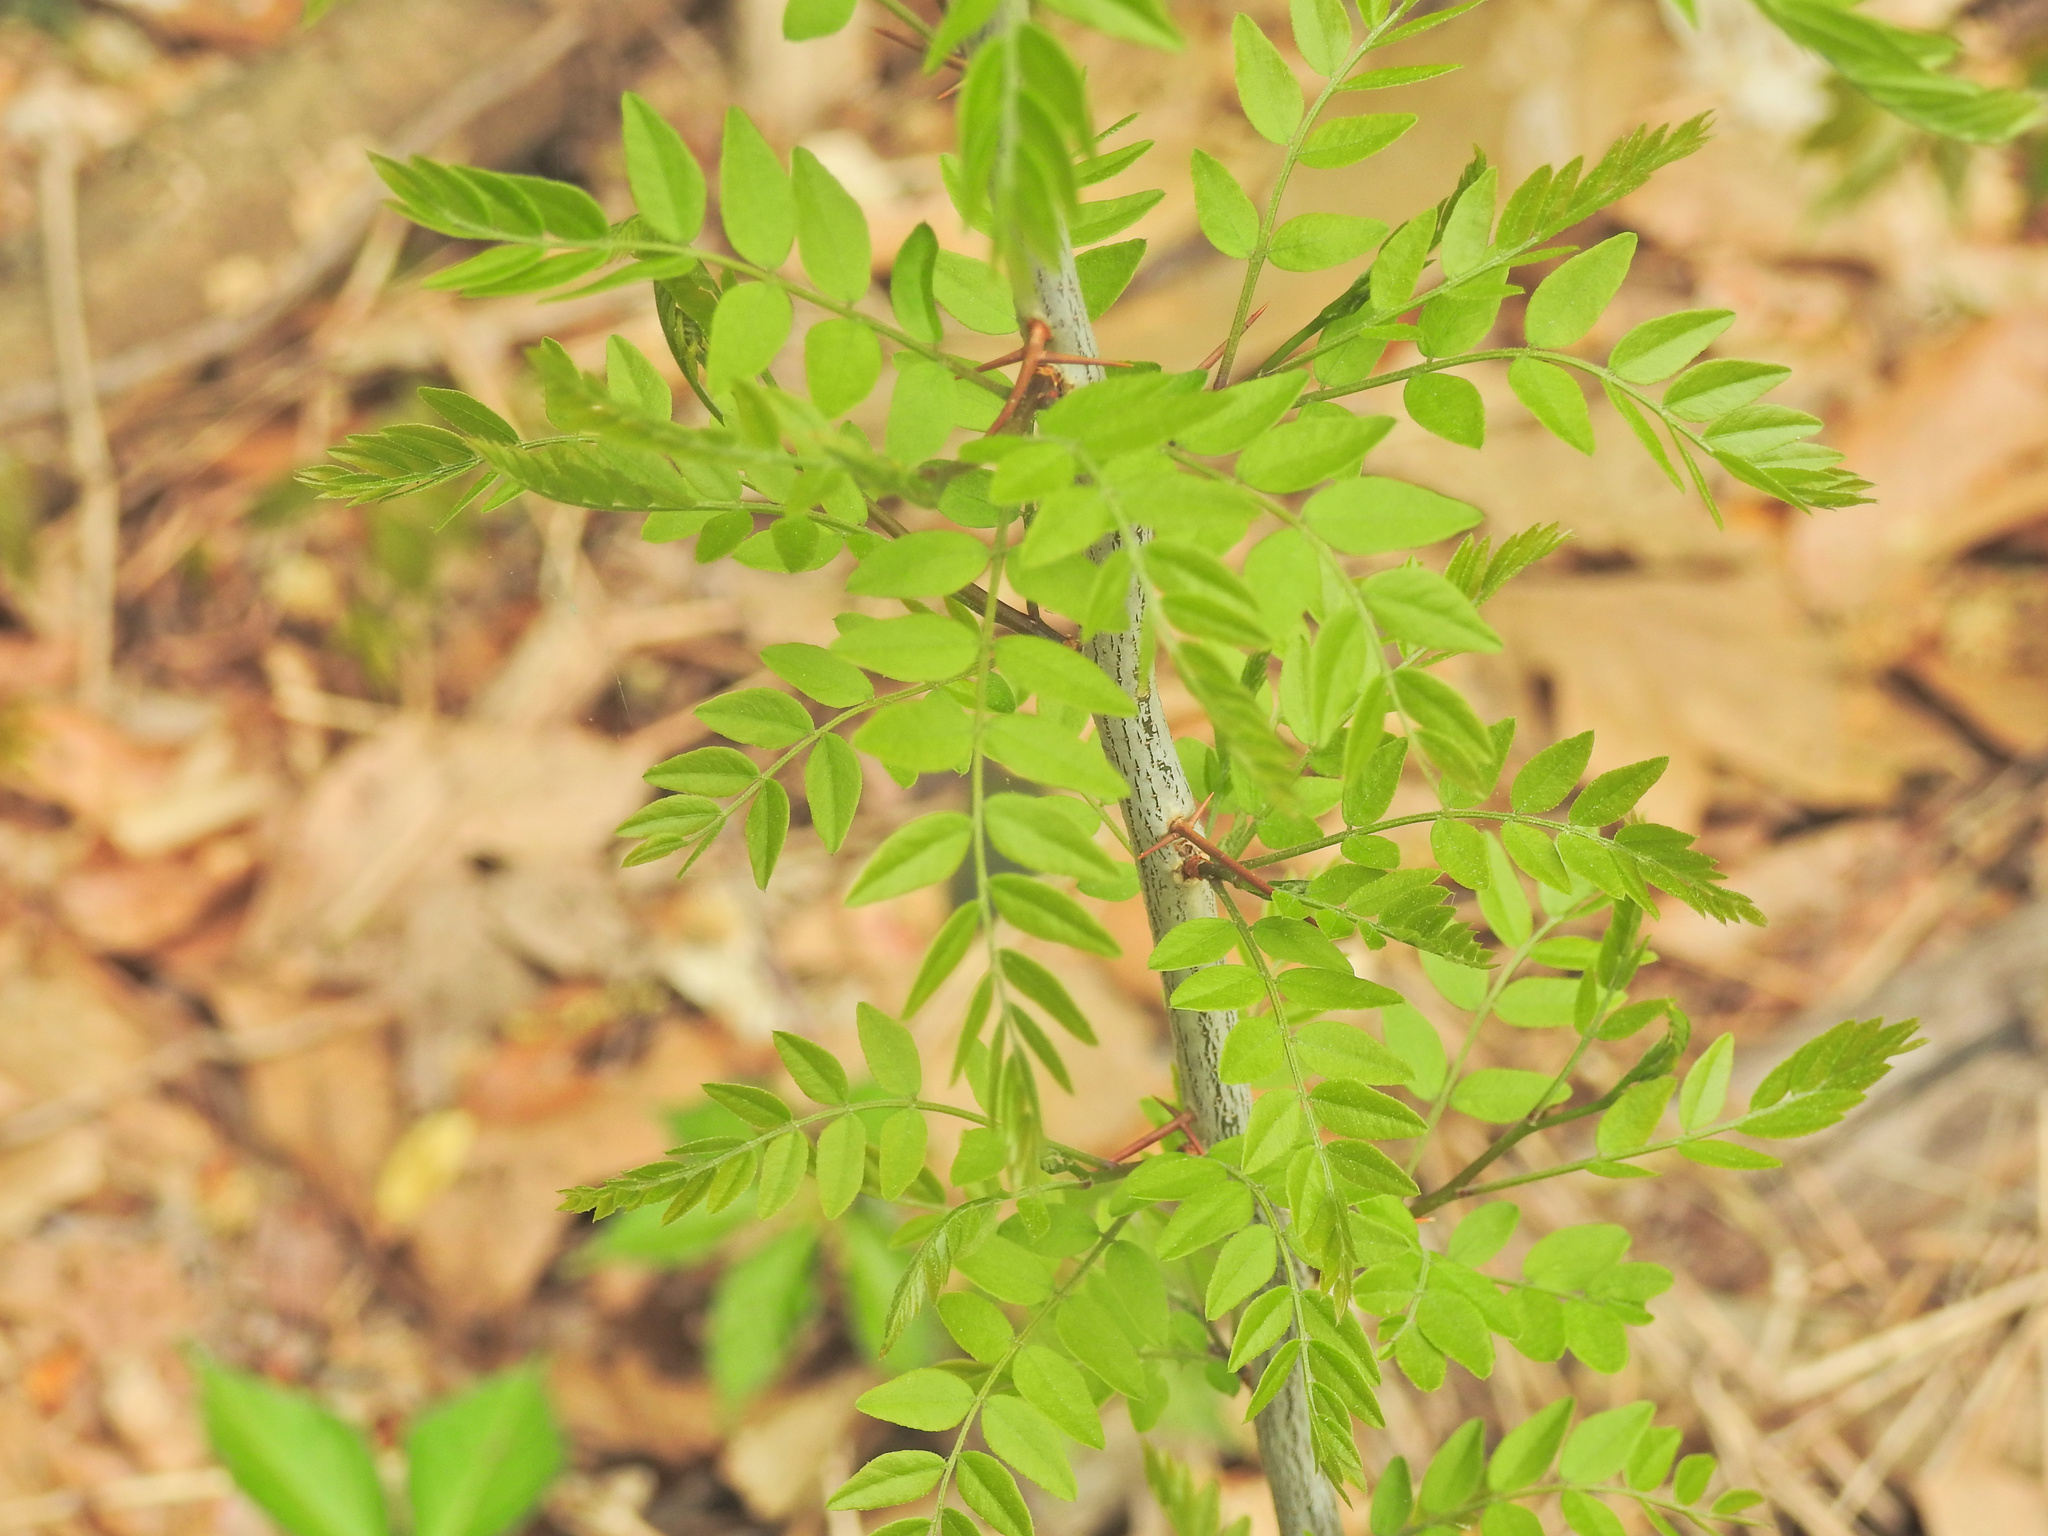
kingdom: Plantae
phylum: Tracheophyta
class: Magnoliopsida
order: Fabales
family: Fabaceae
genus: Gleditsia
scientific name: Gleditsia triacanthos
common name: Common honeylocust
